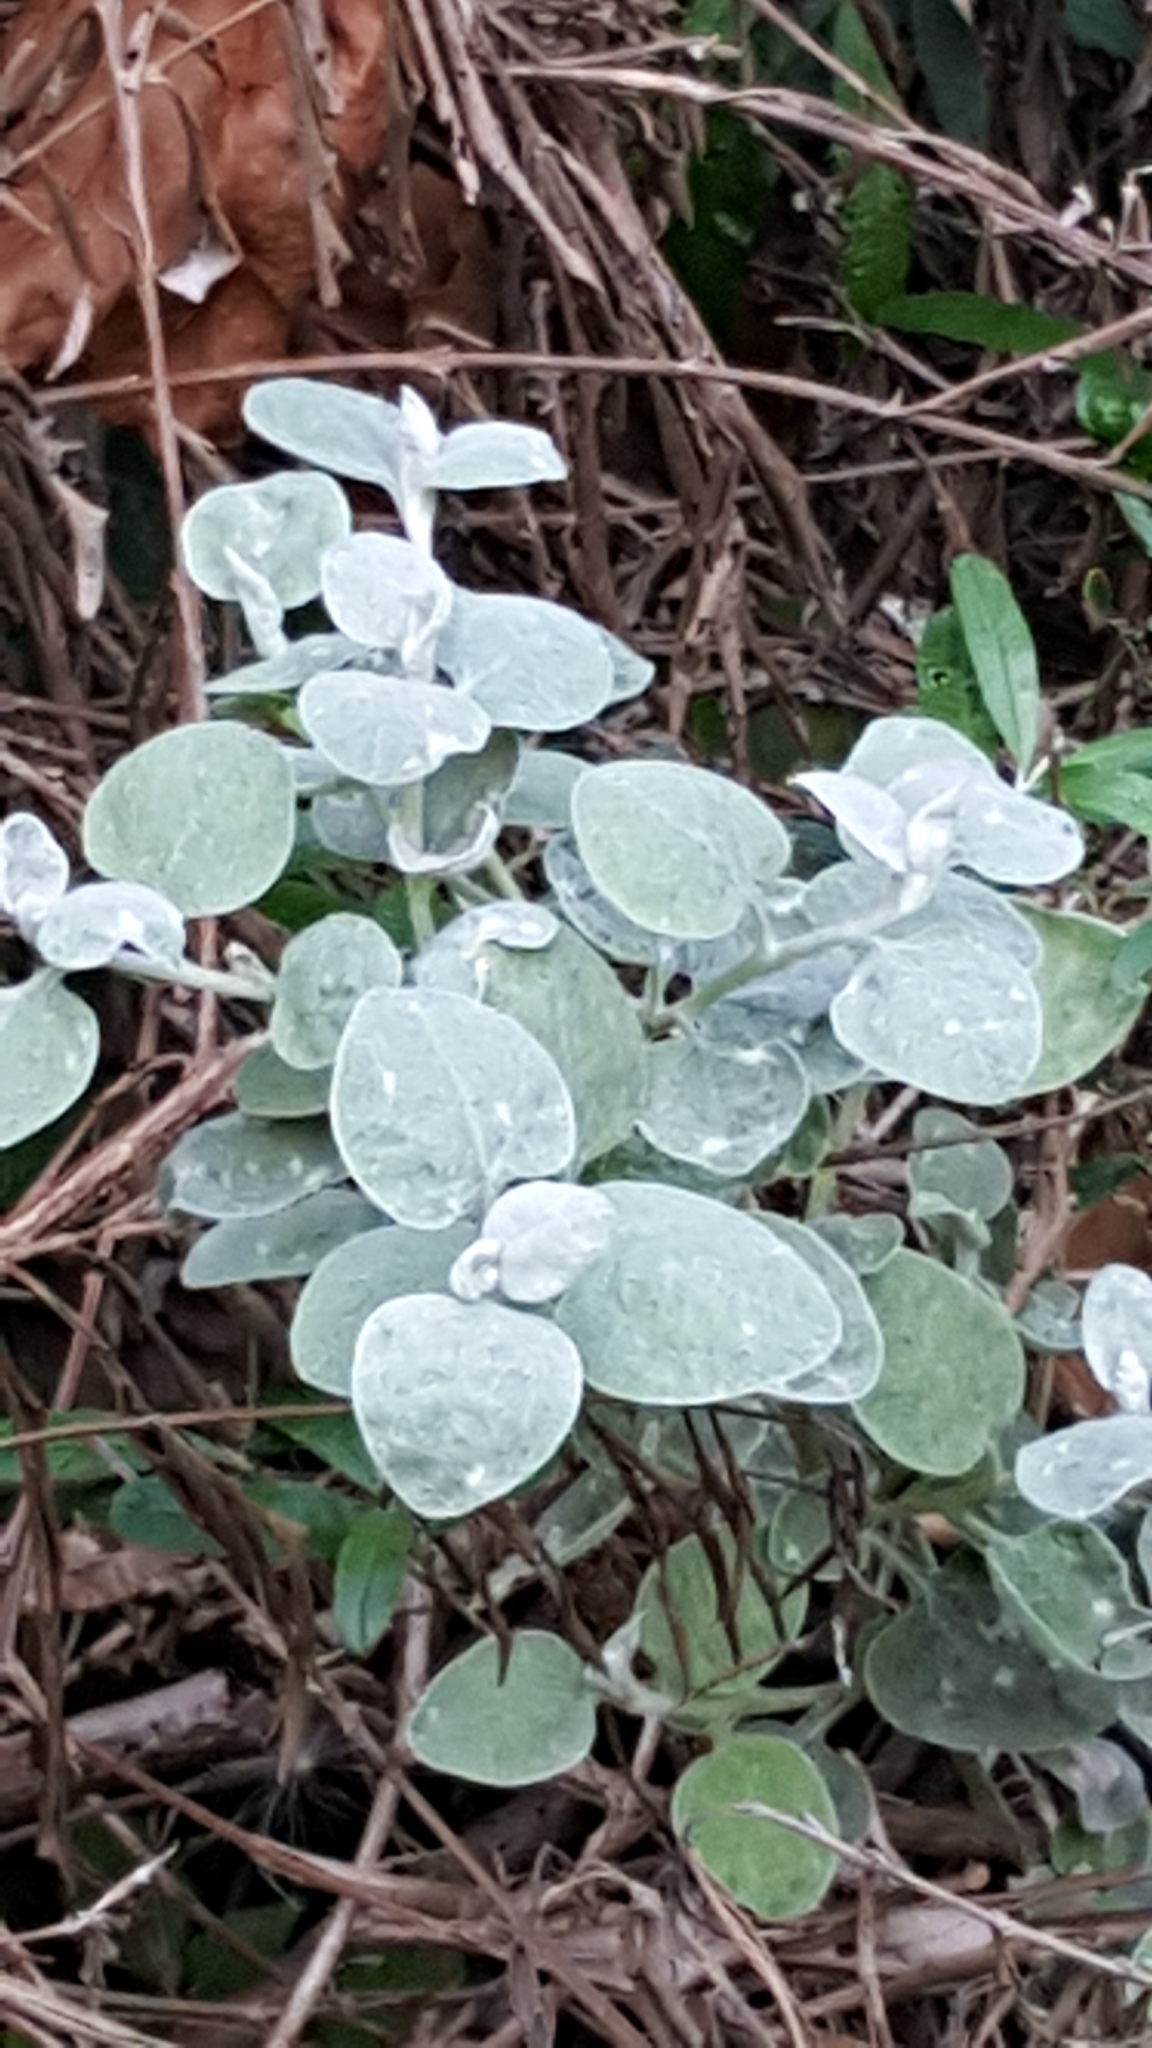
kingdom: Plantae
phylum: Tracheophyta
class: Magnoliopsida
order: Asterales
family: Asteraceae
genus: Helichrysum
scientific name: Helichrysum petiolare
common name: Licorice-plant
